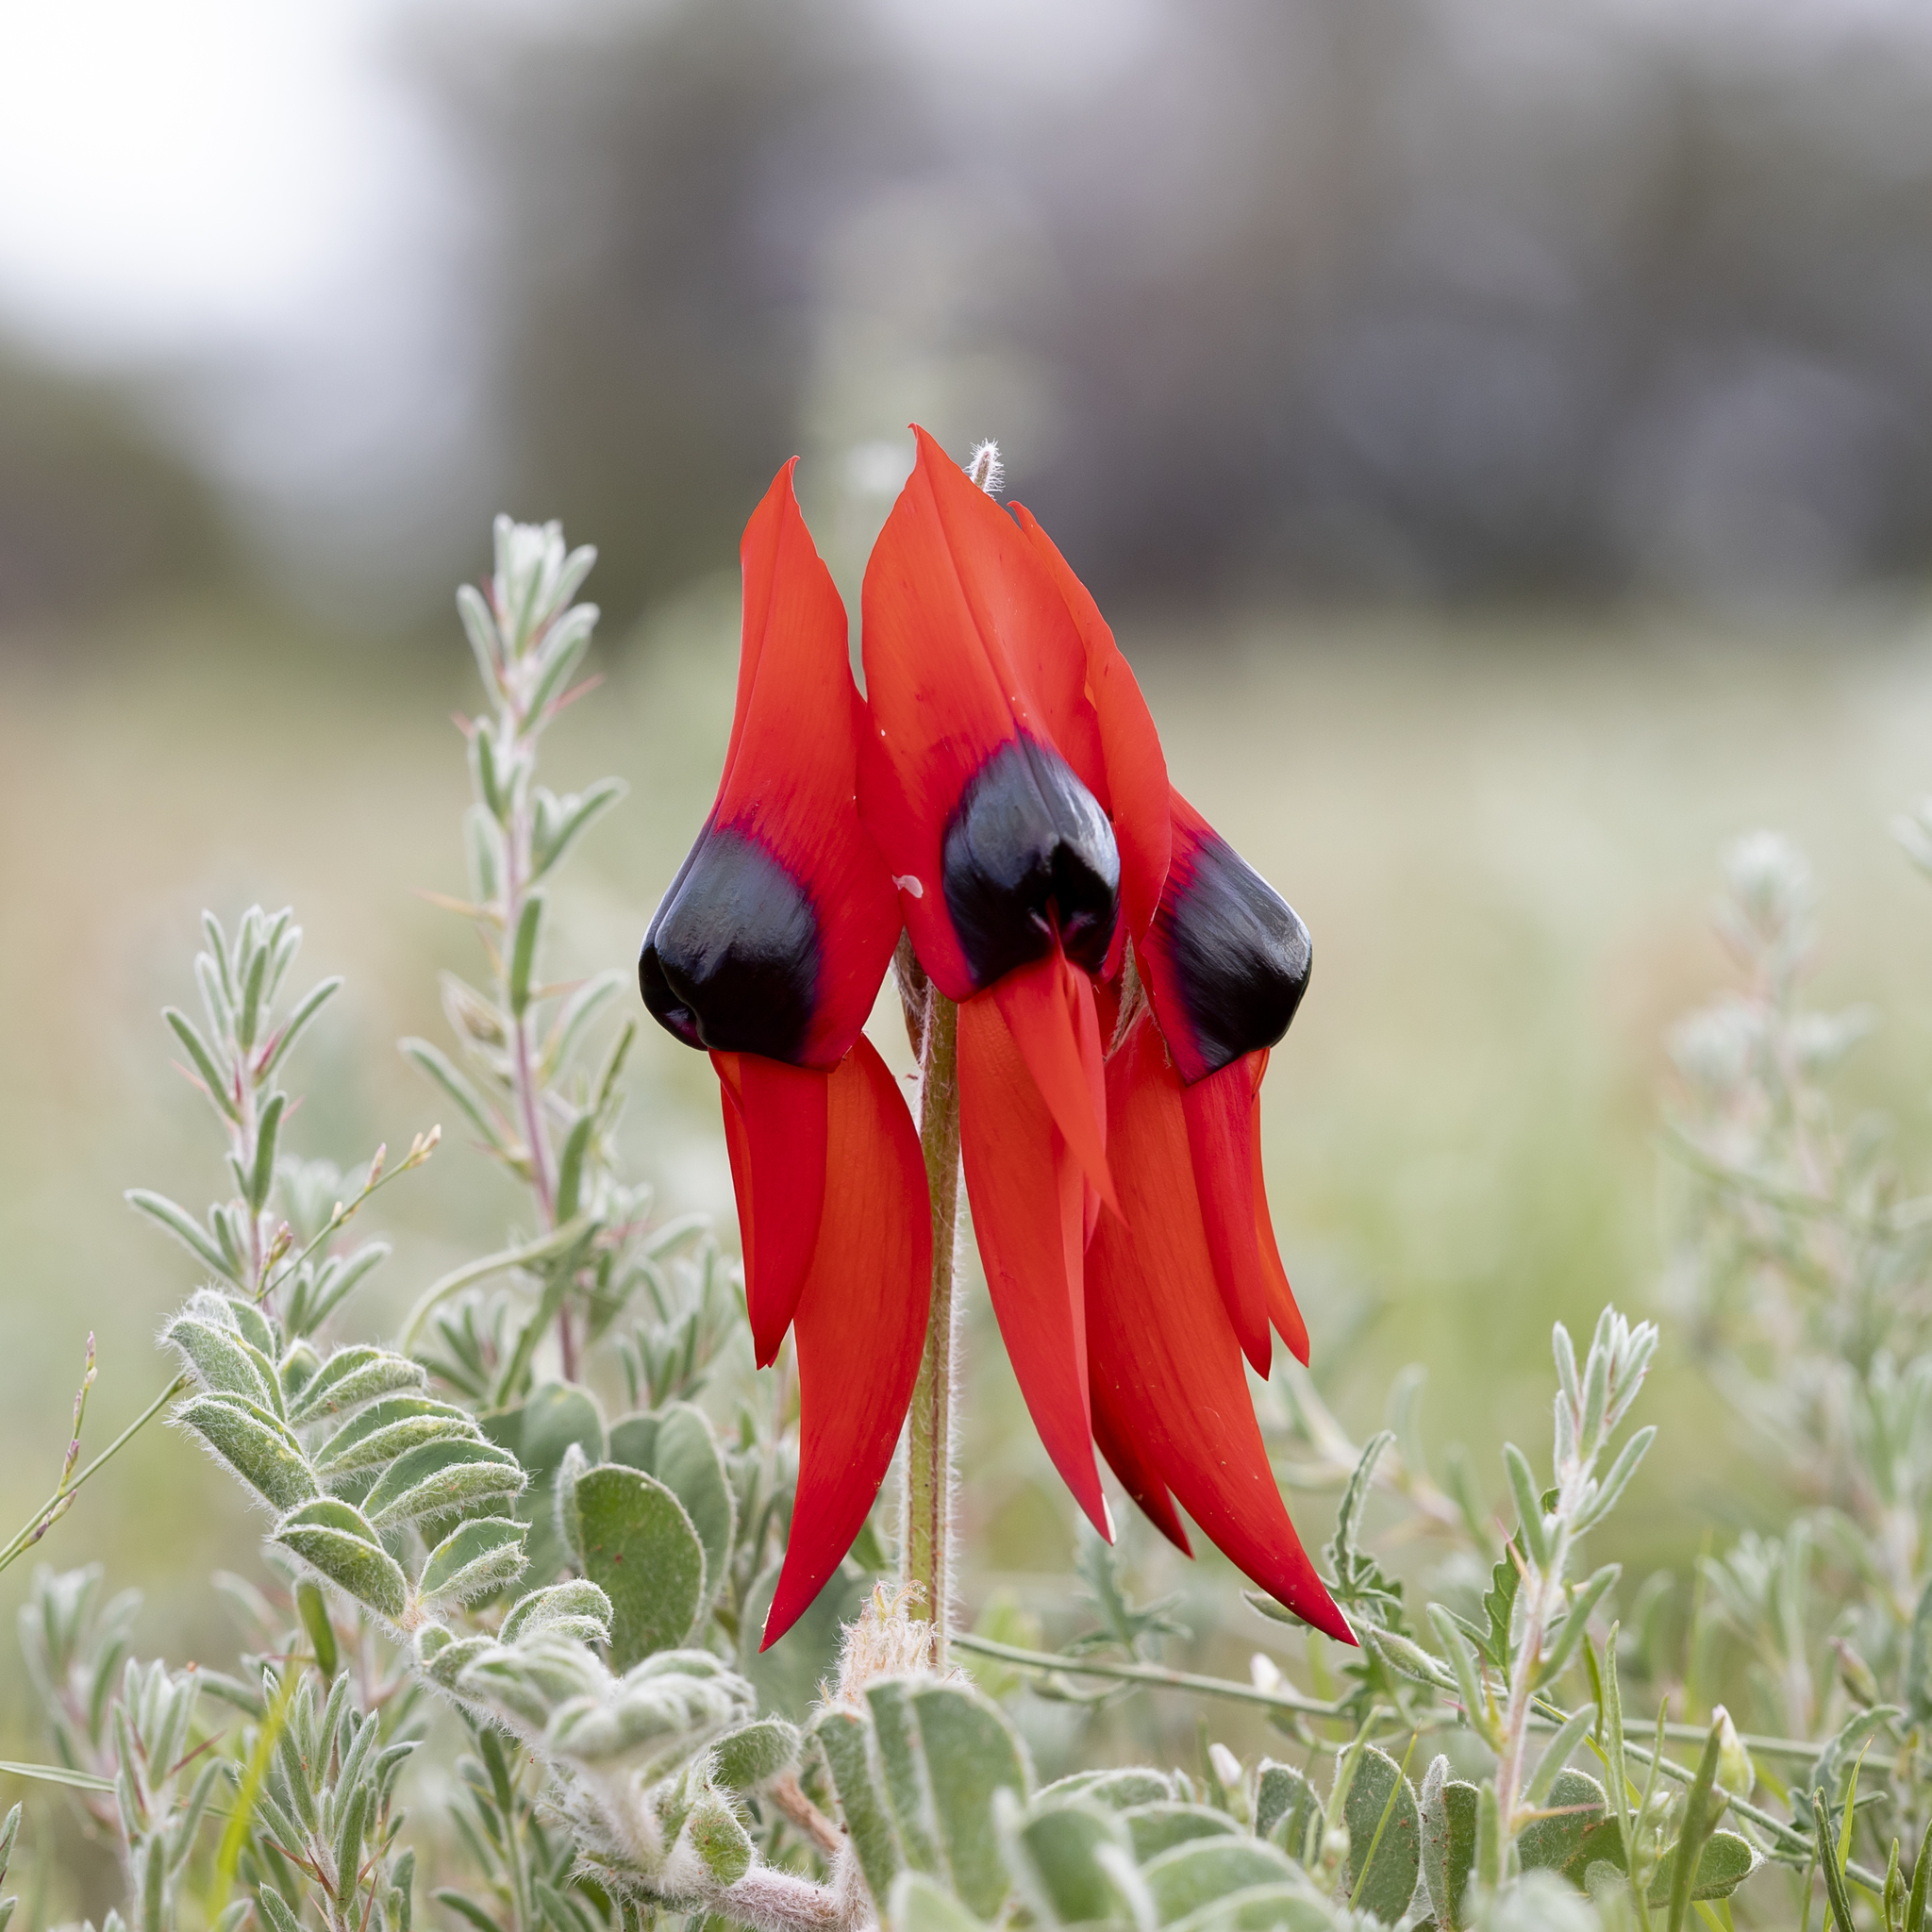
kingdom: Plantae
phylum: Tracheophyta
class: Magnoliopsida
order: Fabales
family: Fabaceae
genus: Swainsona
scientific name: Swainsona formosa
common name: Sturt's desert-pea
